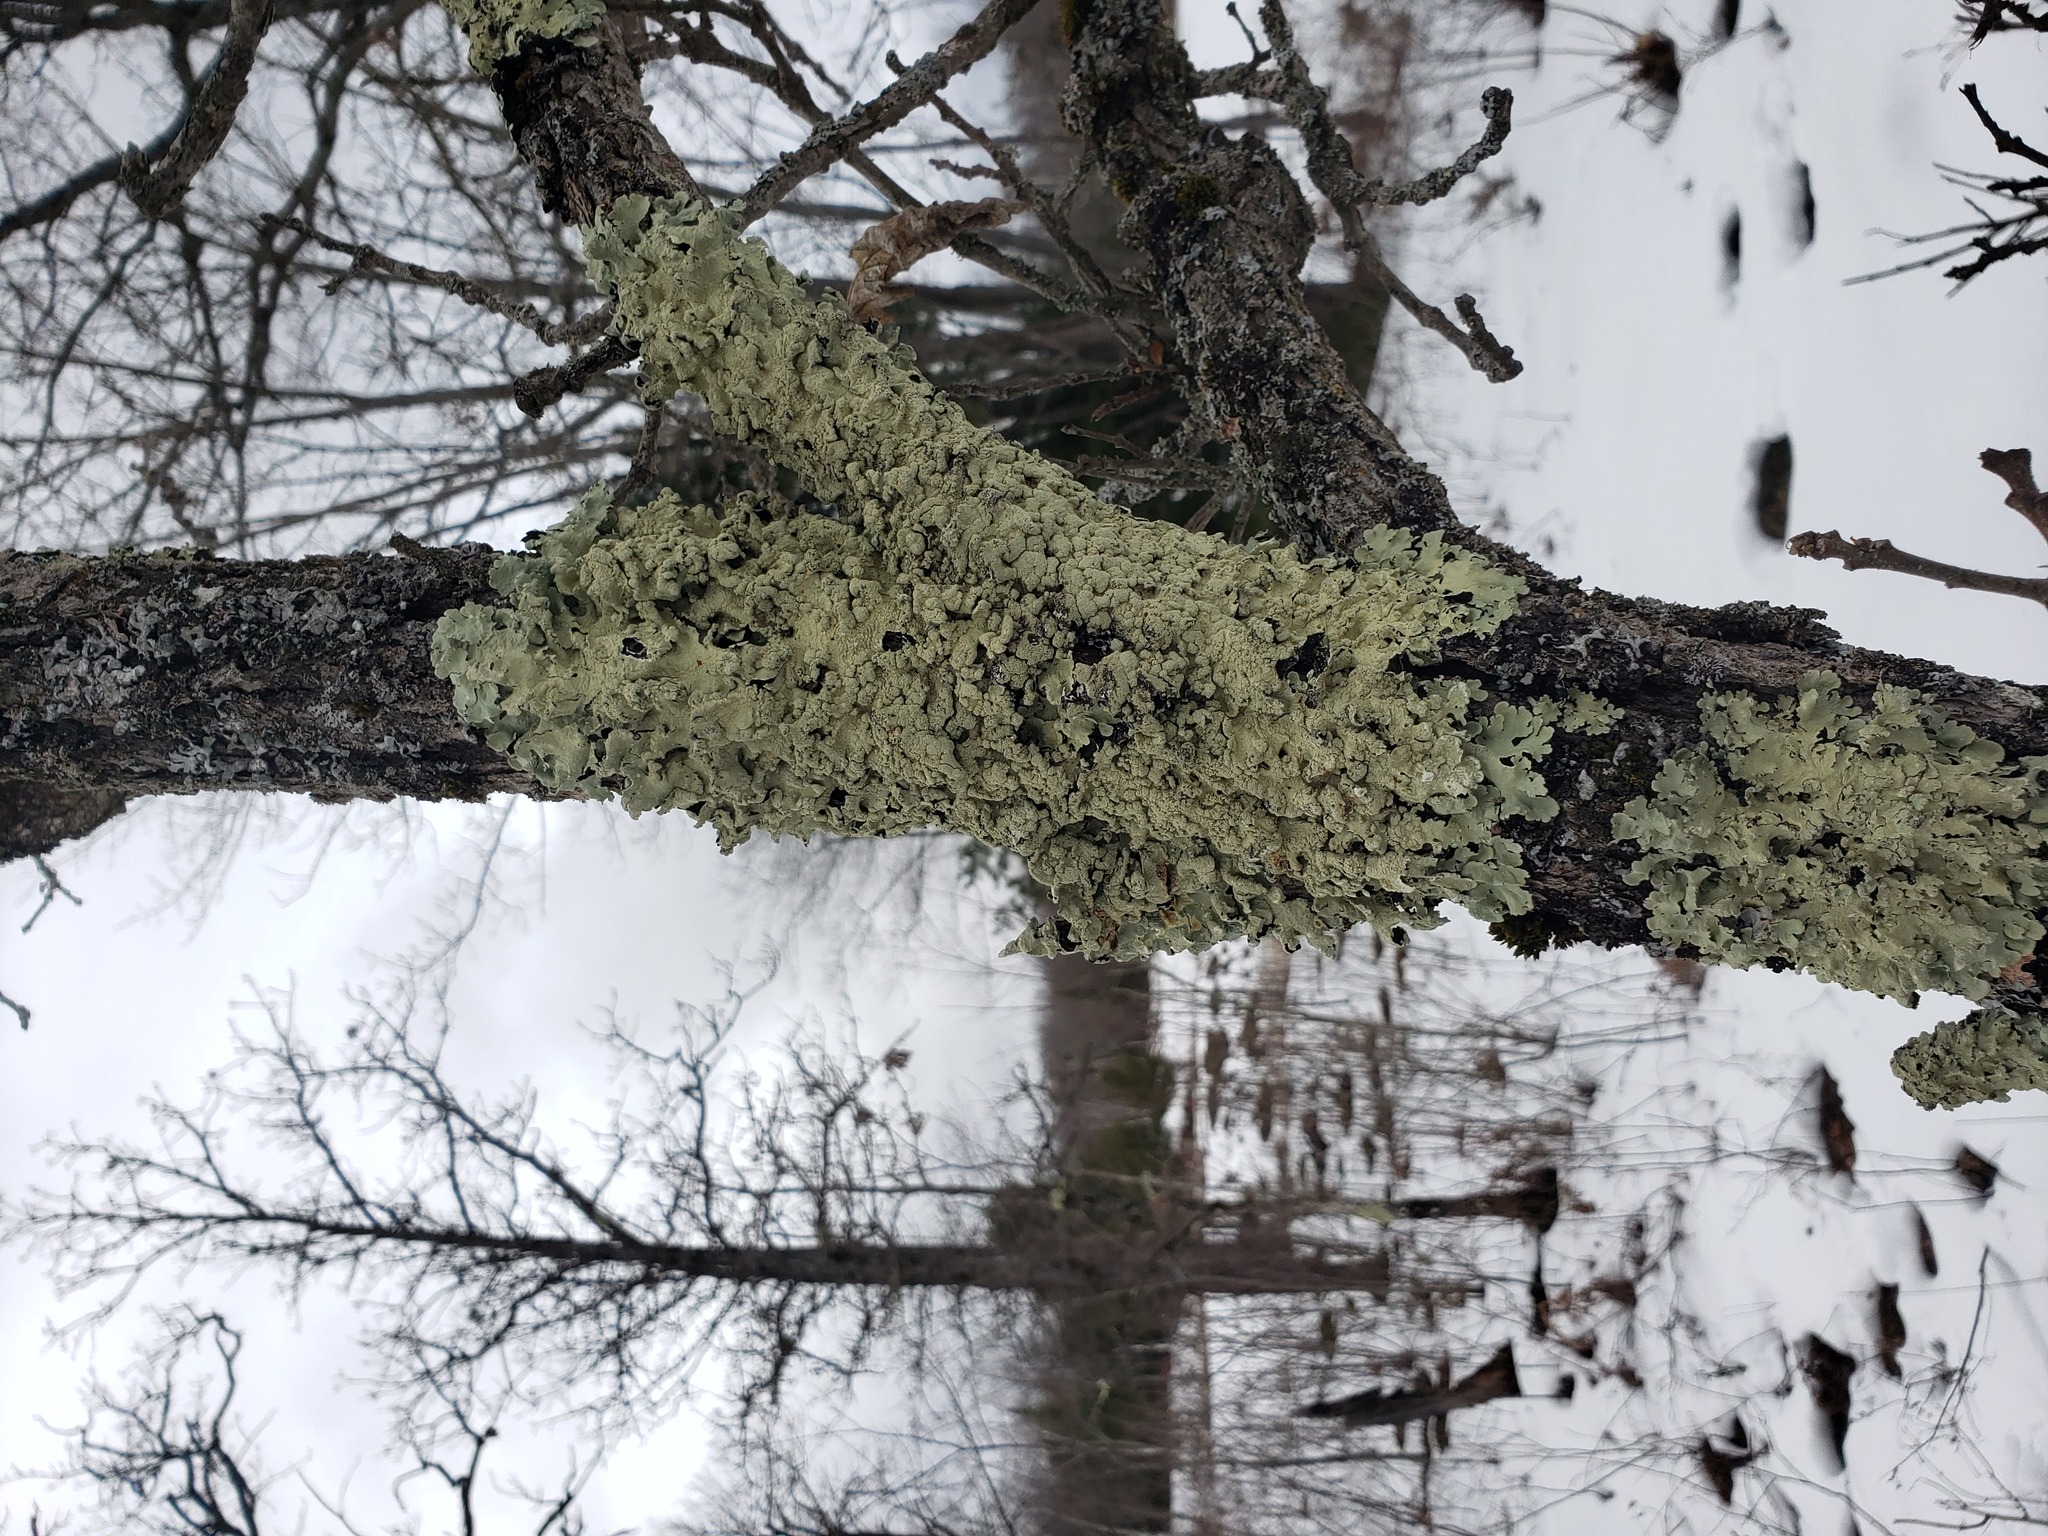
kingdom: Fungi
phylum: Ascomycota
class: Lecanoromycetes
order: Lecanorales
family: Parmeliaceae
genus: Flavopunctelia
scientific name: Flavopunctelia flaventior
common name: Speckled greenshield
